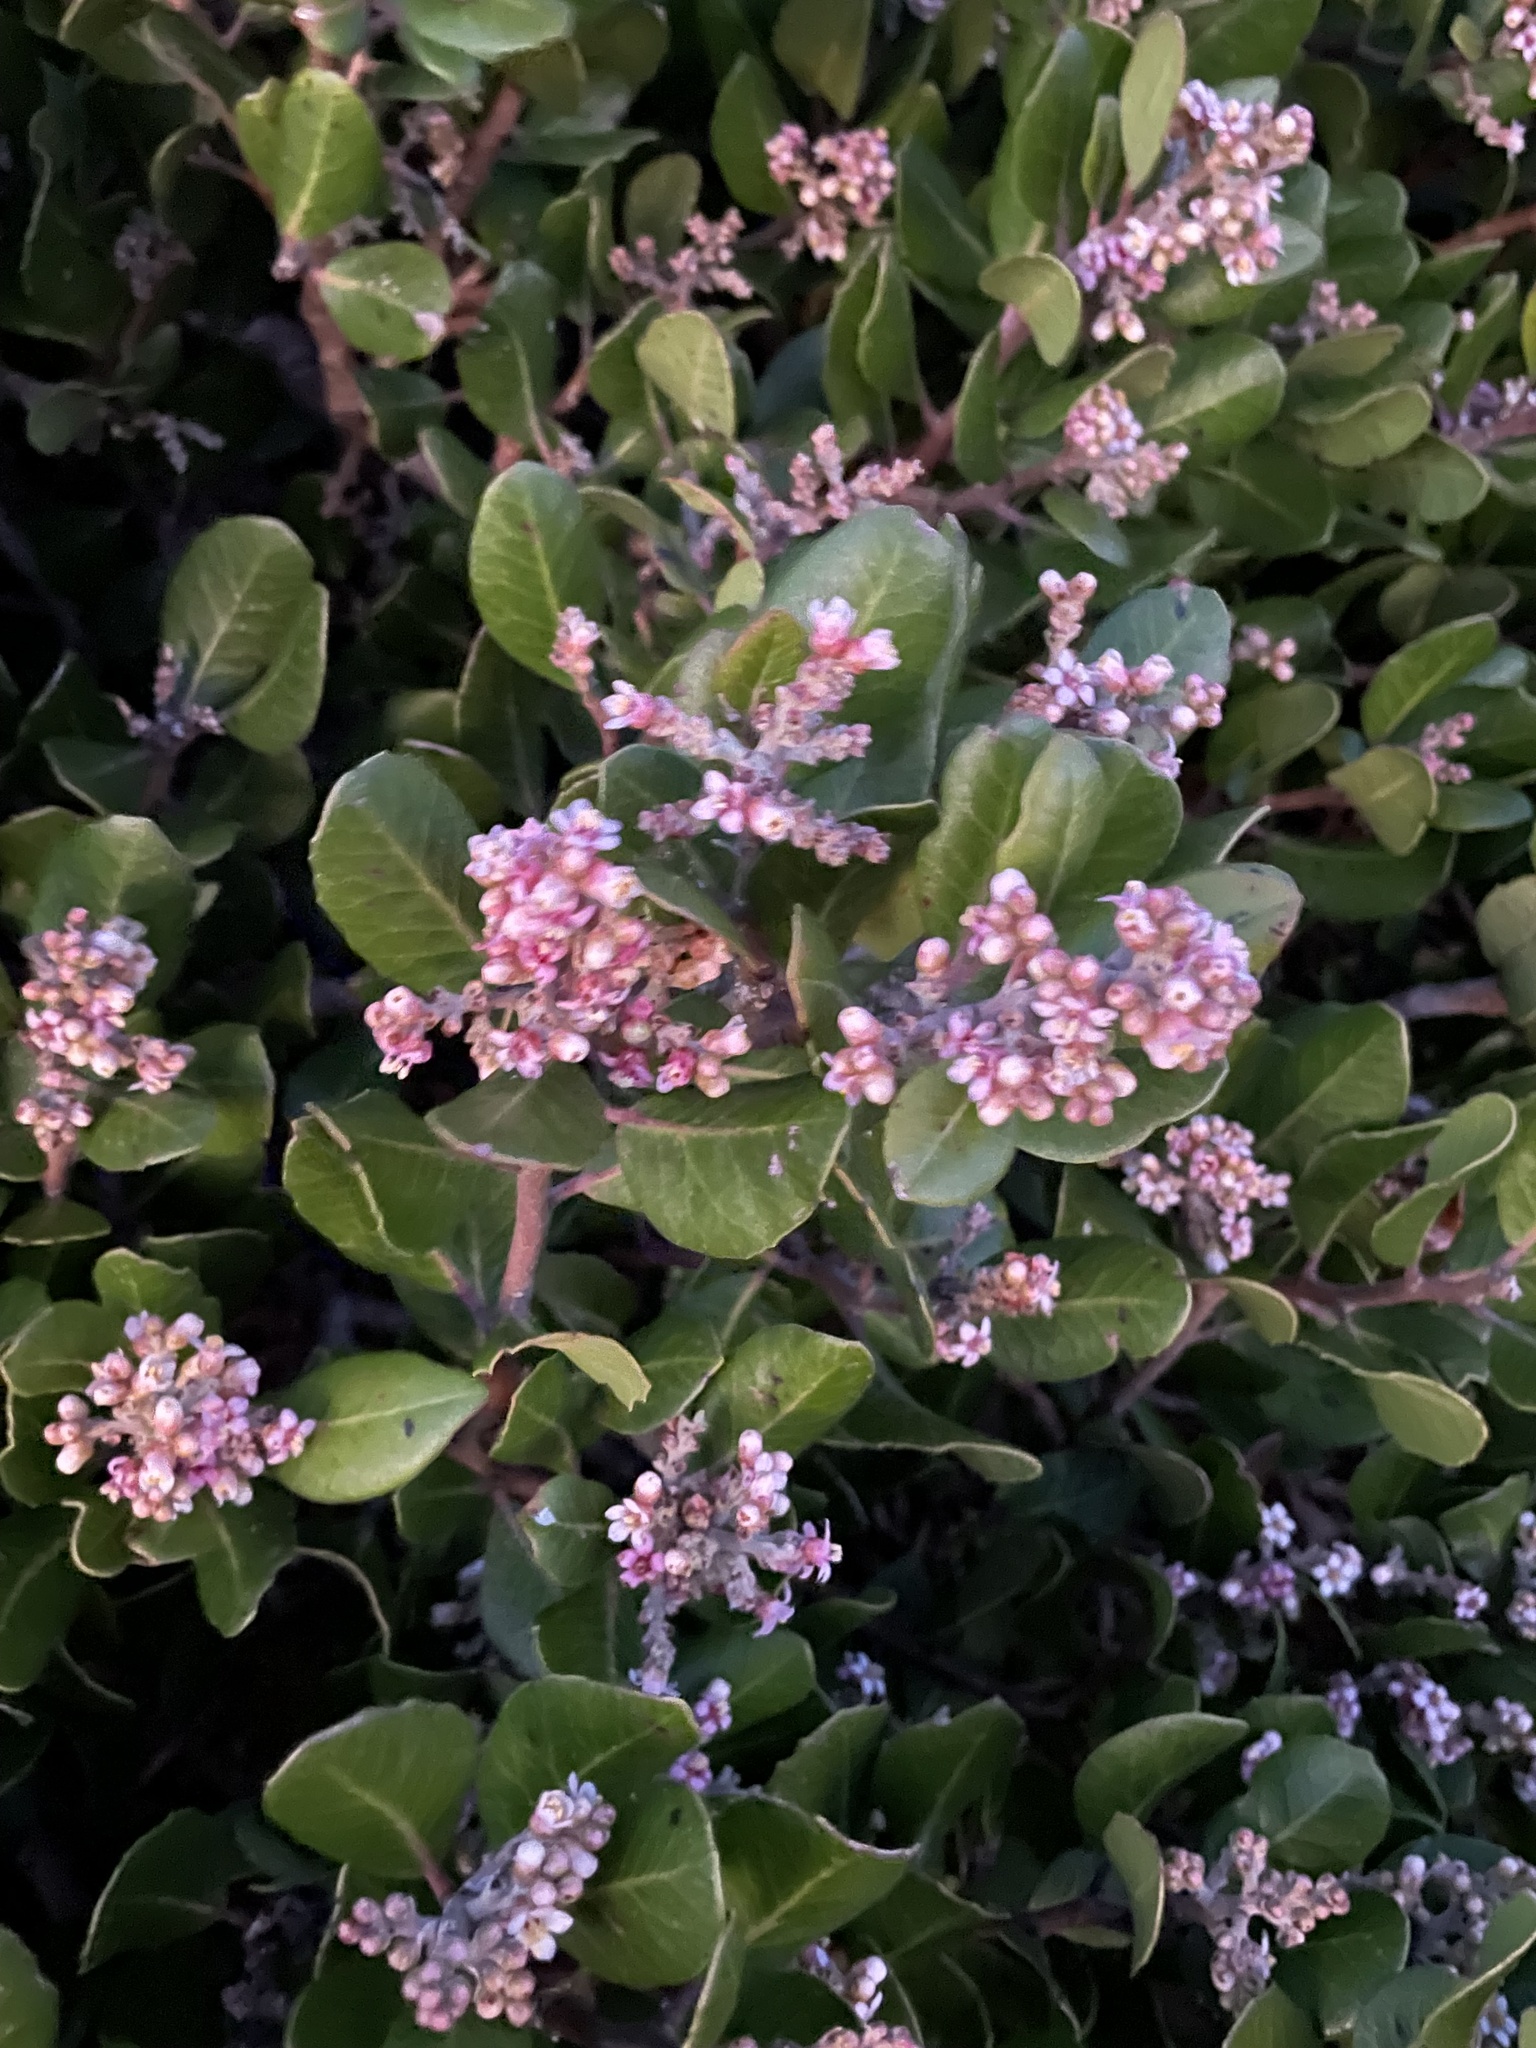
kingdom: Plantae
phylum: Tracheophyta
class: Magnoliopsida
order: Sapindales
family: Anacardiaceae
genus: Rhus
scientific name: Rhus integrifolia
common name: Lemonade sumac
